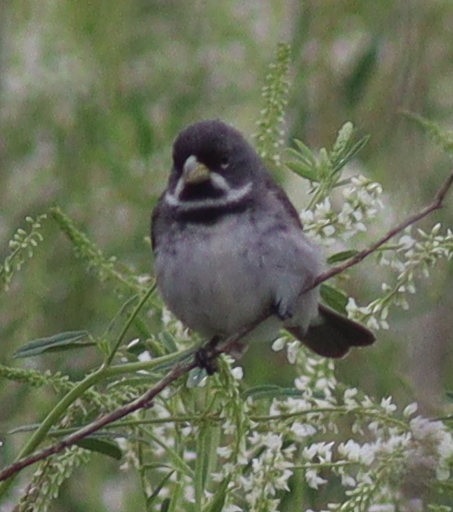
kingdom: Animalia
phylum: Chordata
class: Aves
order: Passeriformes
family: Thraupidae
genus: Sporophila
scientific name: Sporophila caerulescens
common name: Double-collared seedeater
